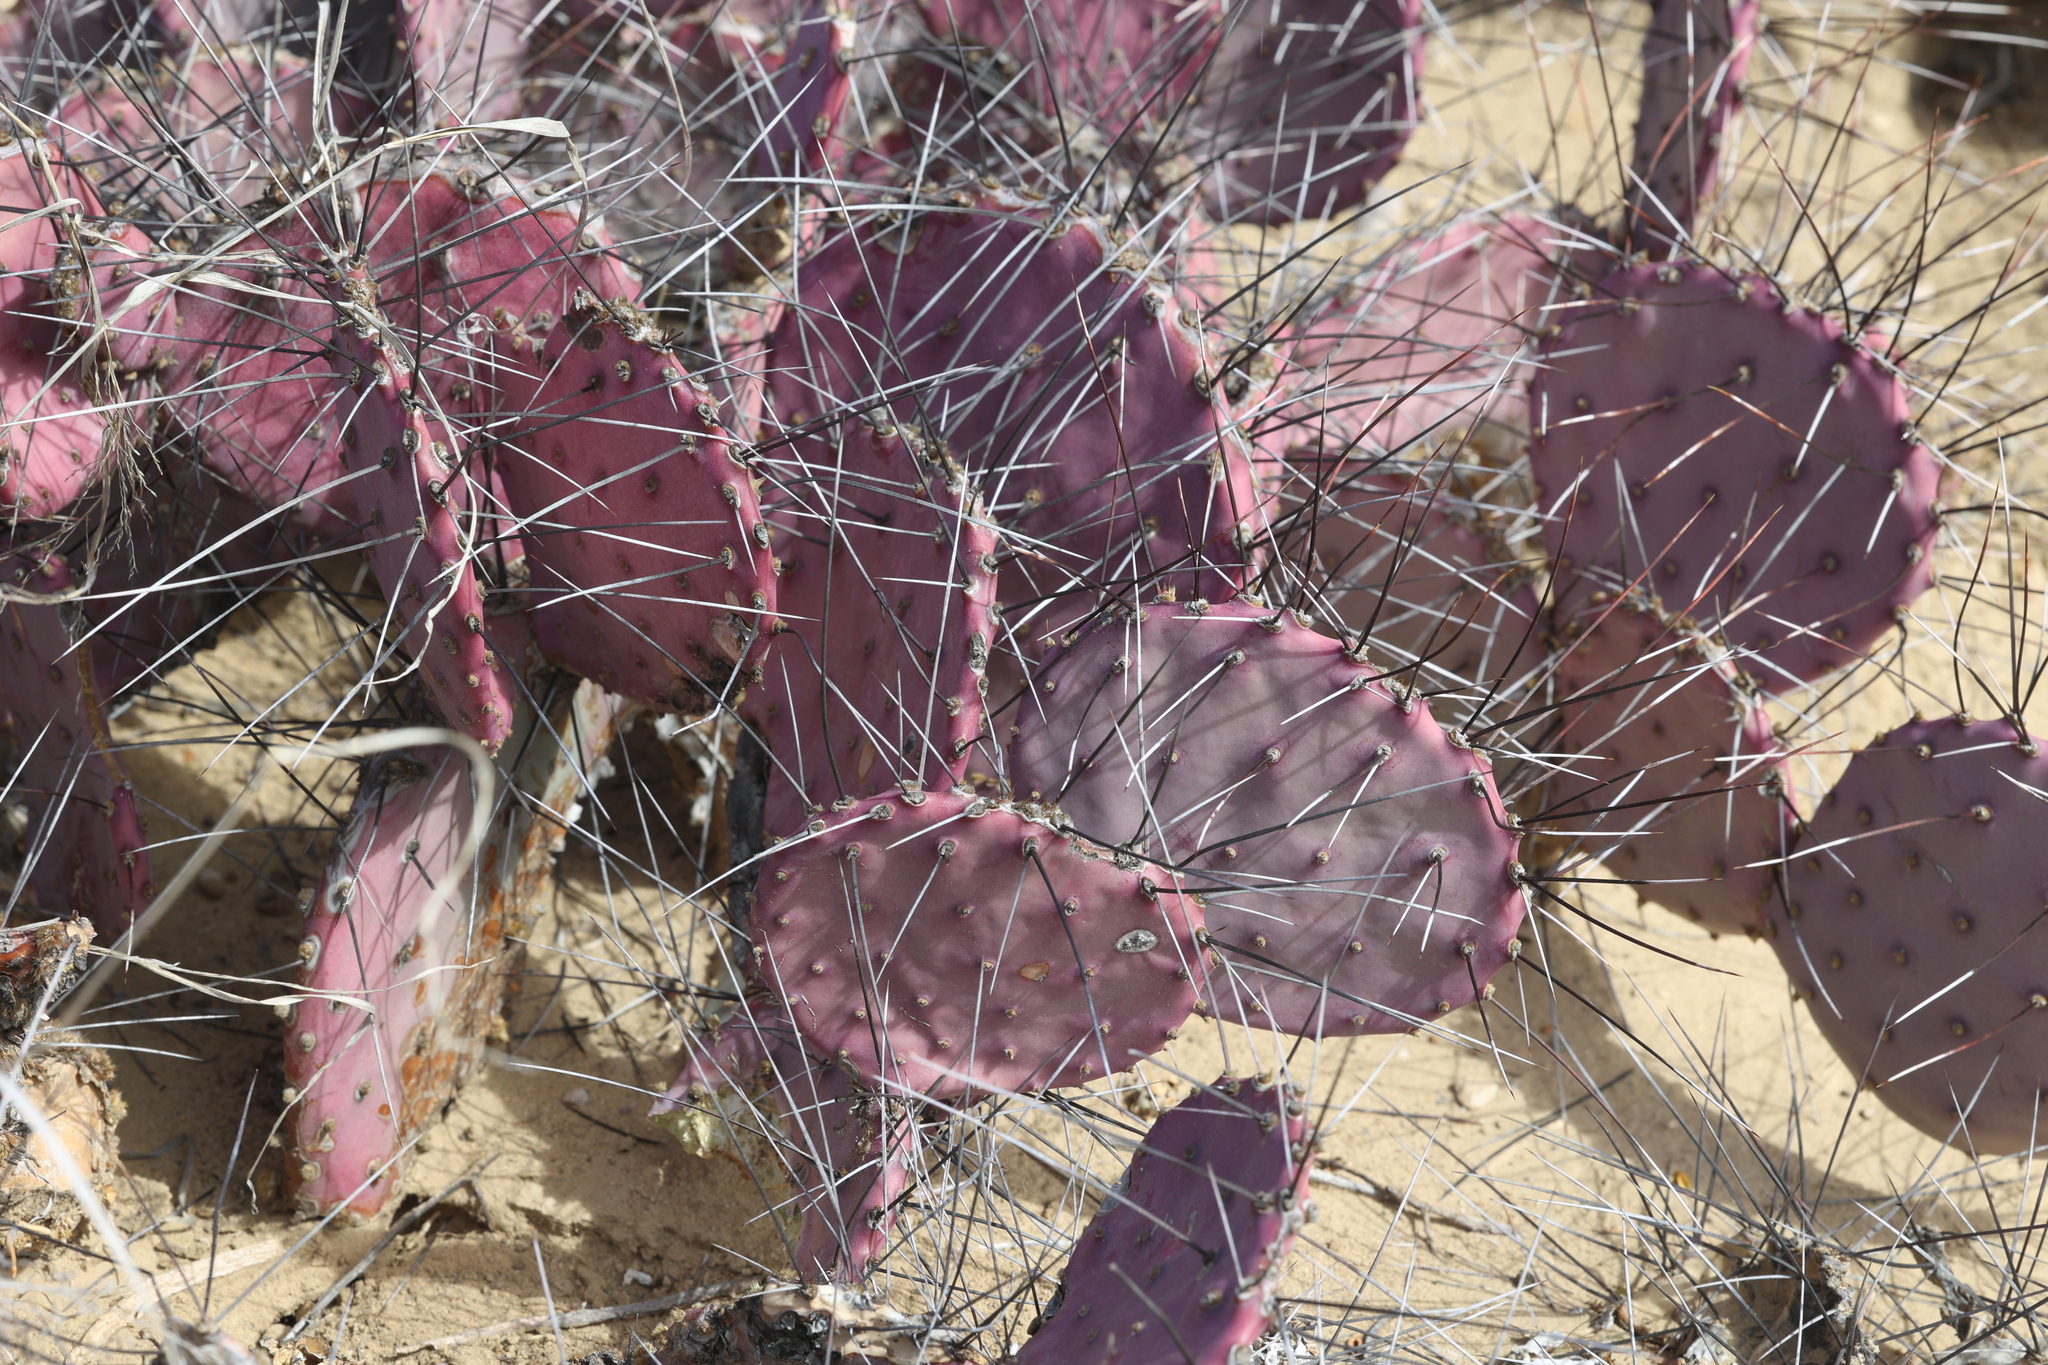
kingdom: Plantae
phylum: Tracheophyta
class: Magnoliopsida
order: Caryophyllales
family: Cactaceae
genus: Opuntia
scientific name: Opuntia phaeacantha
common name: New mexico prickly-pear
